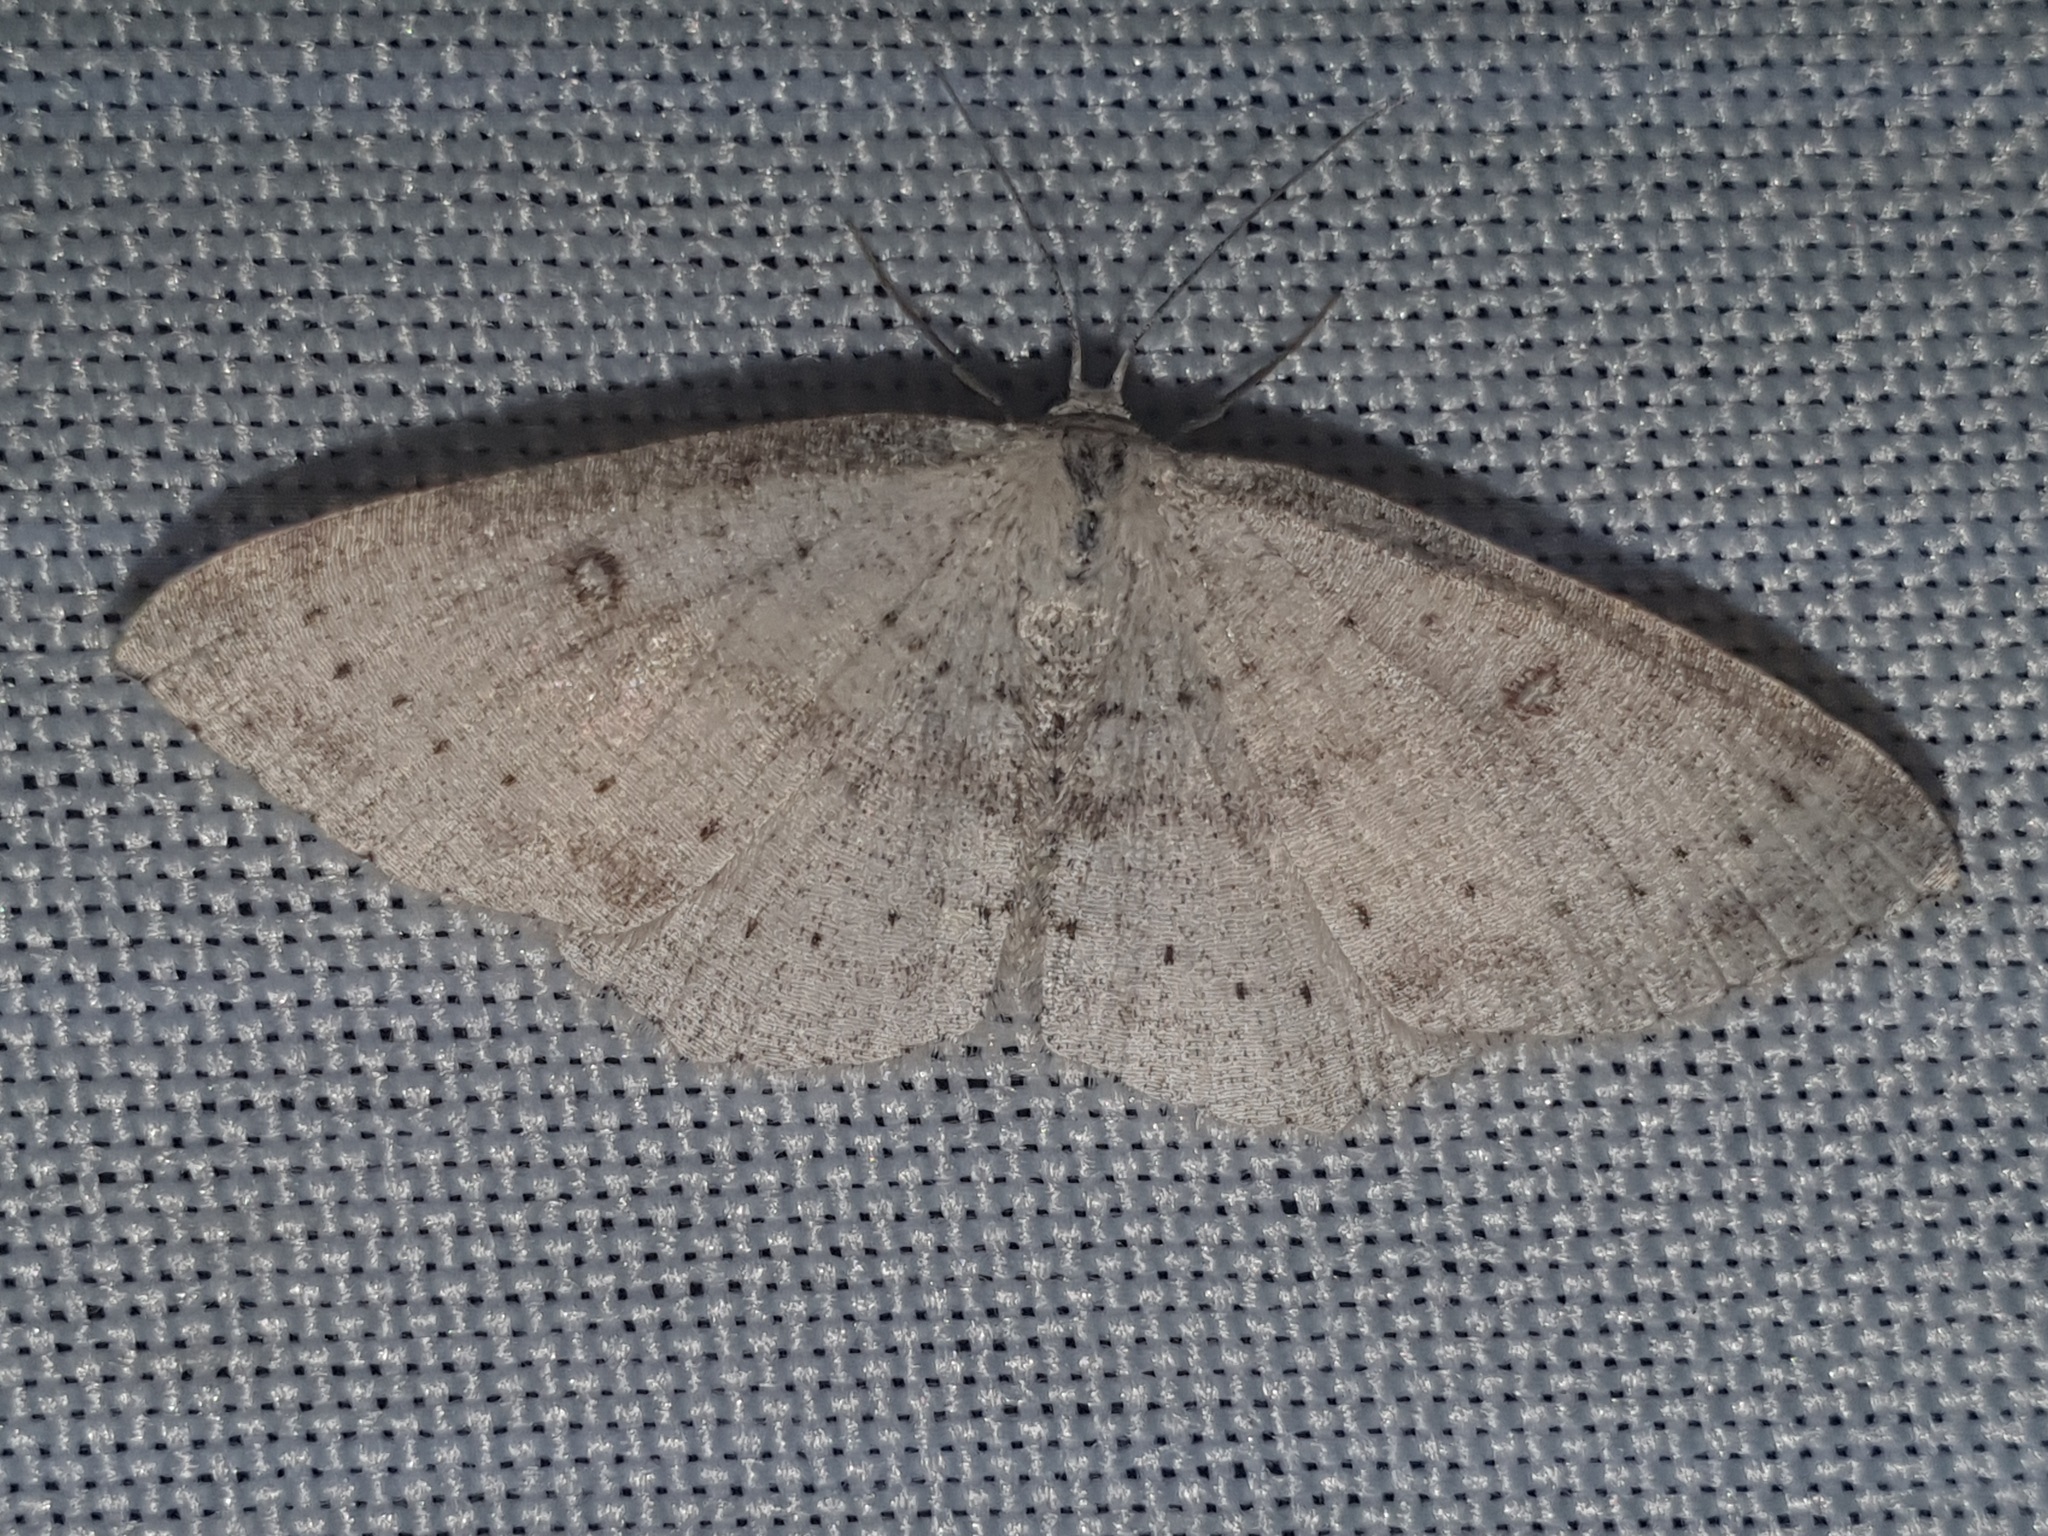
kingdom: Animalia
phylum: Arthropoda
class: Insecta
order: Lepidoptera
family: Geometridae
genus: Cyclophora
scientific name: Cyclophora albipunctata
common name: Birch mocha
